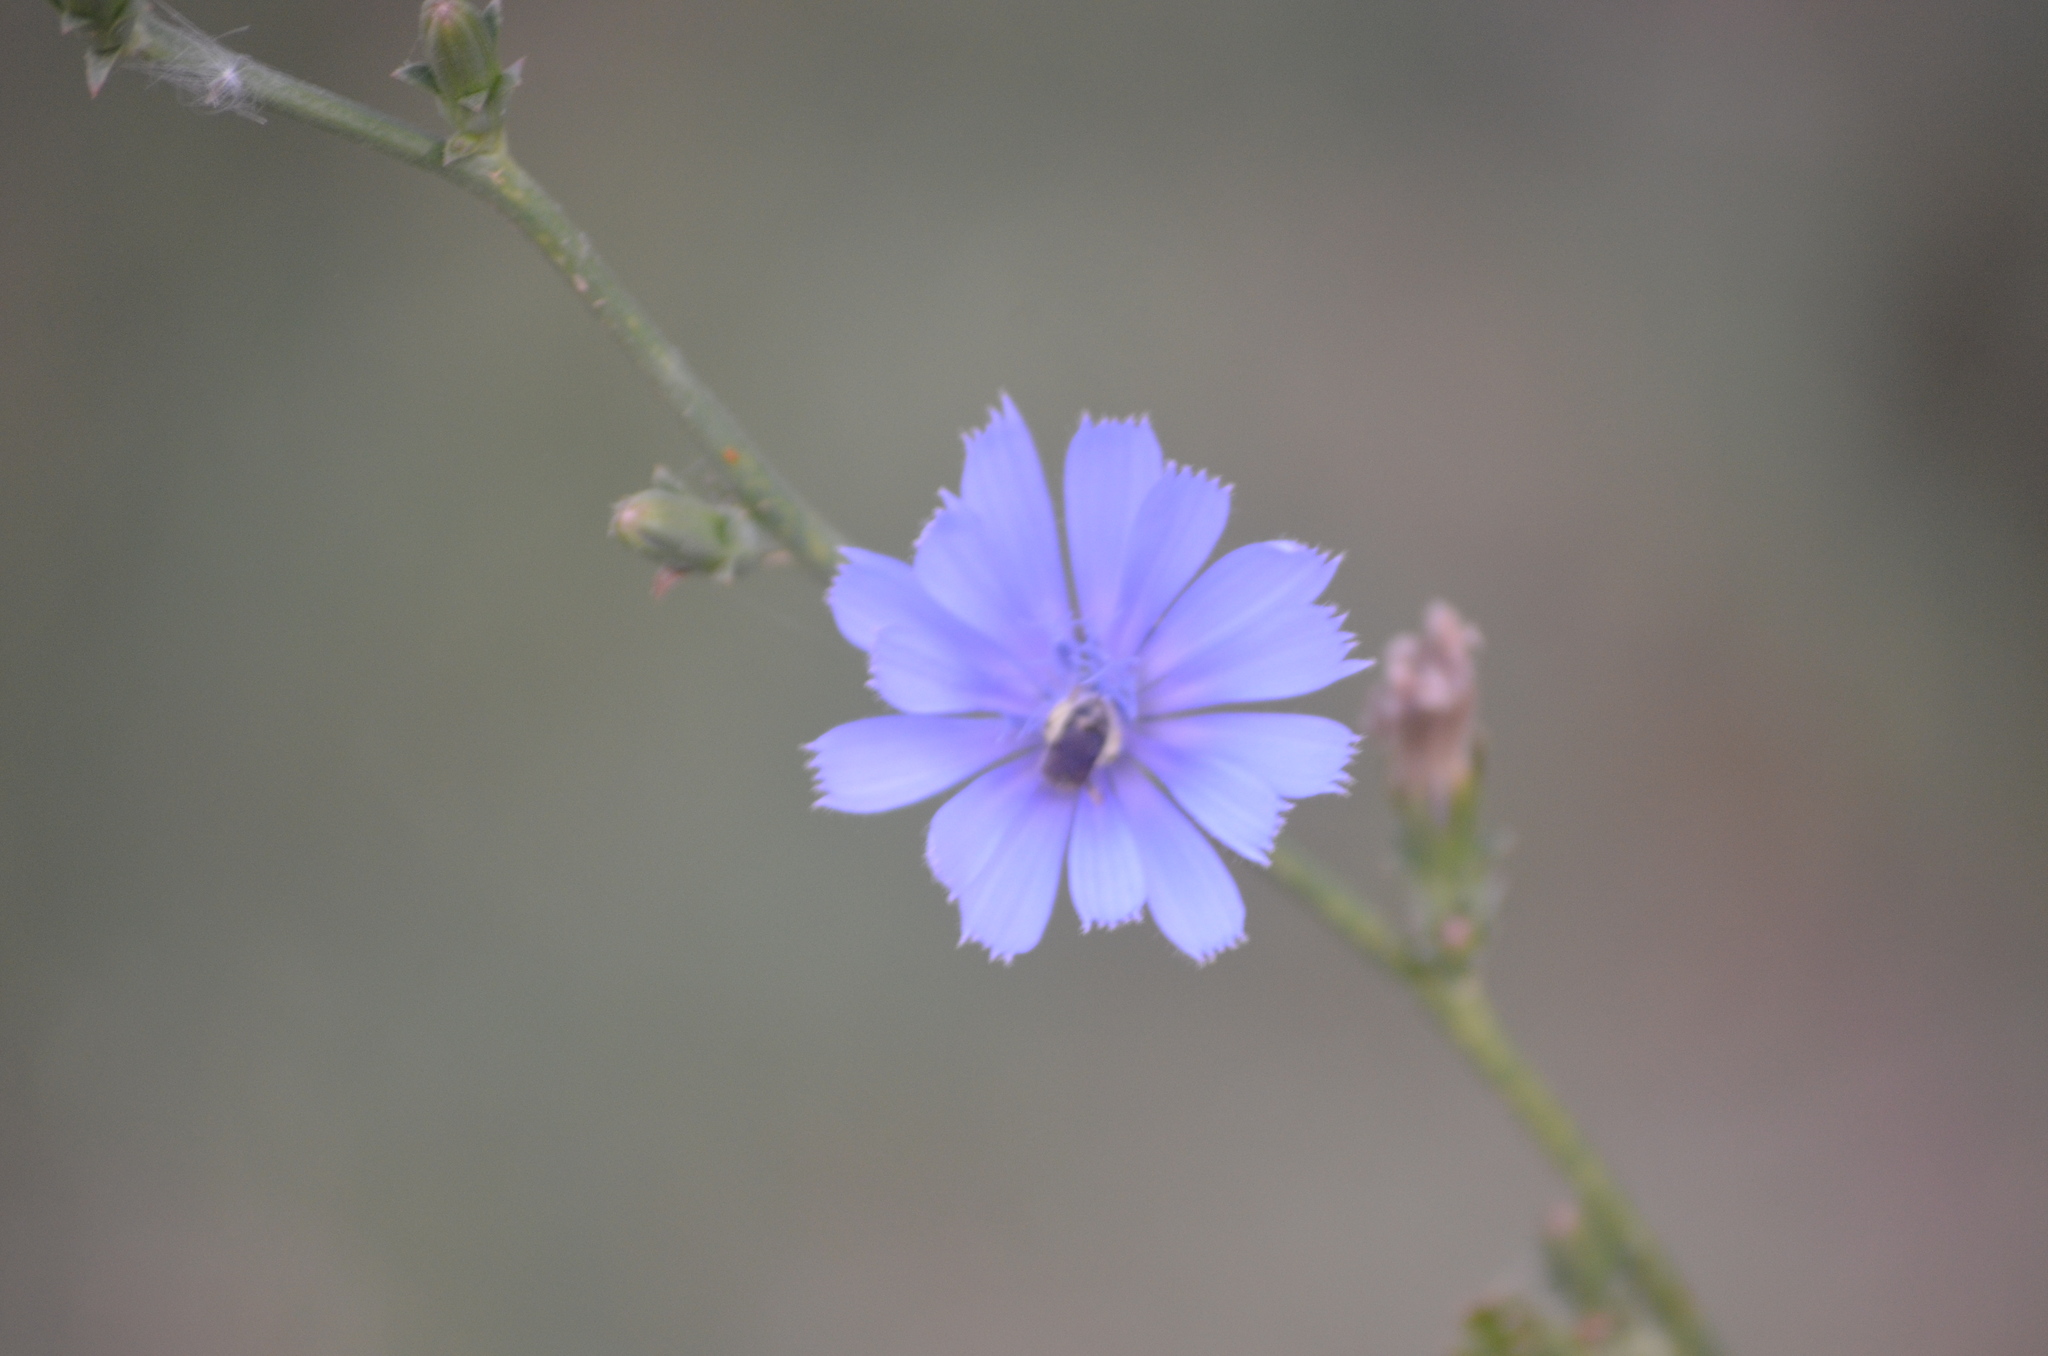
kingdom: Plantae
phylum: Tracheophyta
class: Magnoliopsida
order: Asterales
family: Asteraceae
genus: Cichorium
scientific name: Cichorium intybus
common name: Chicory
